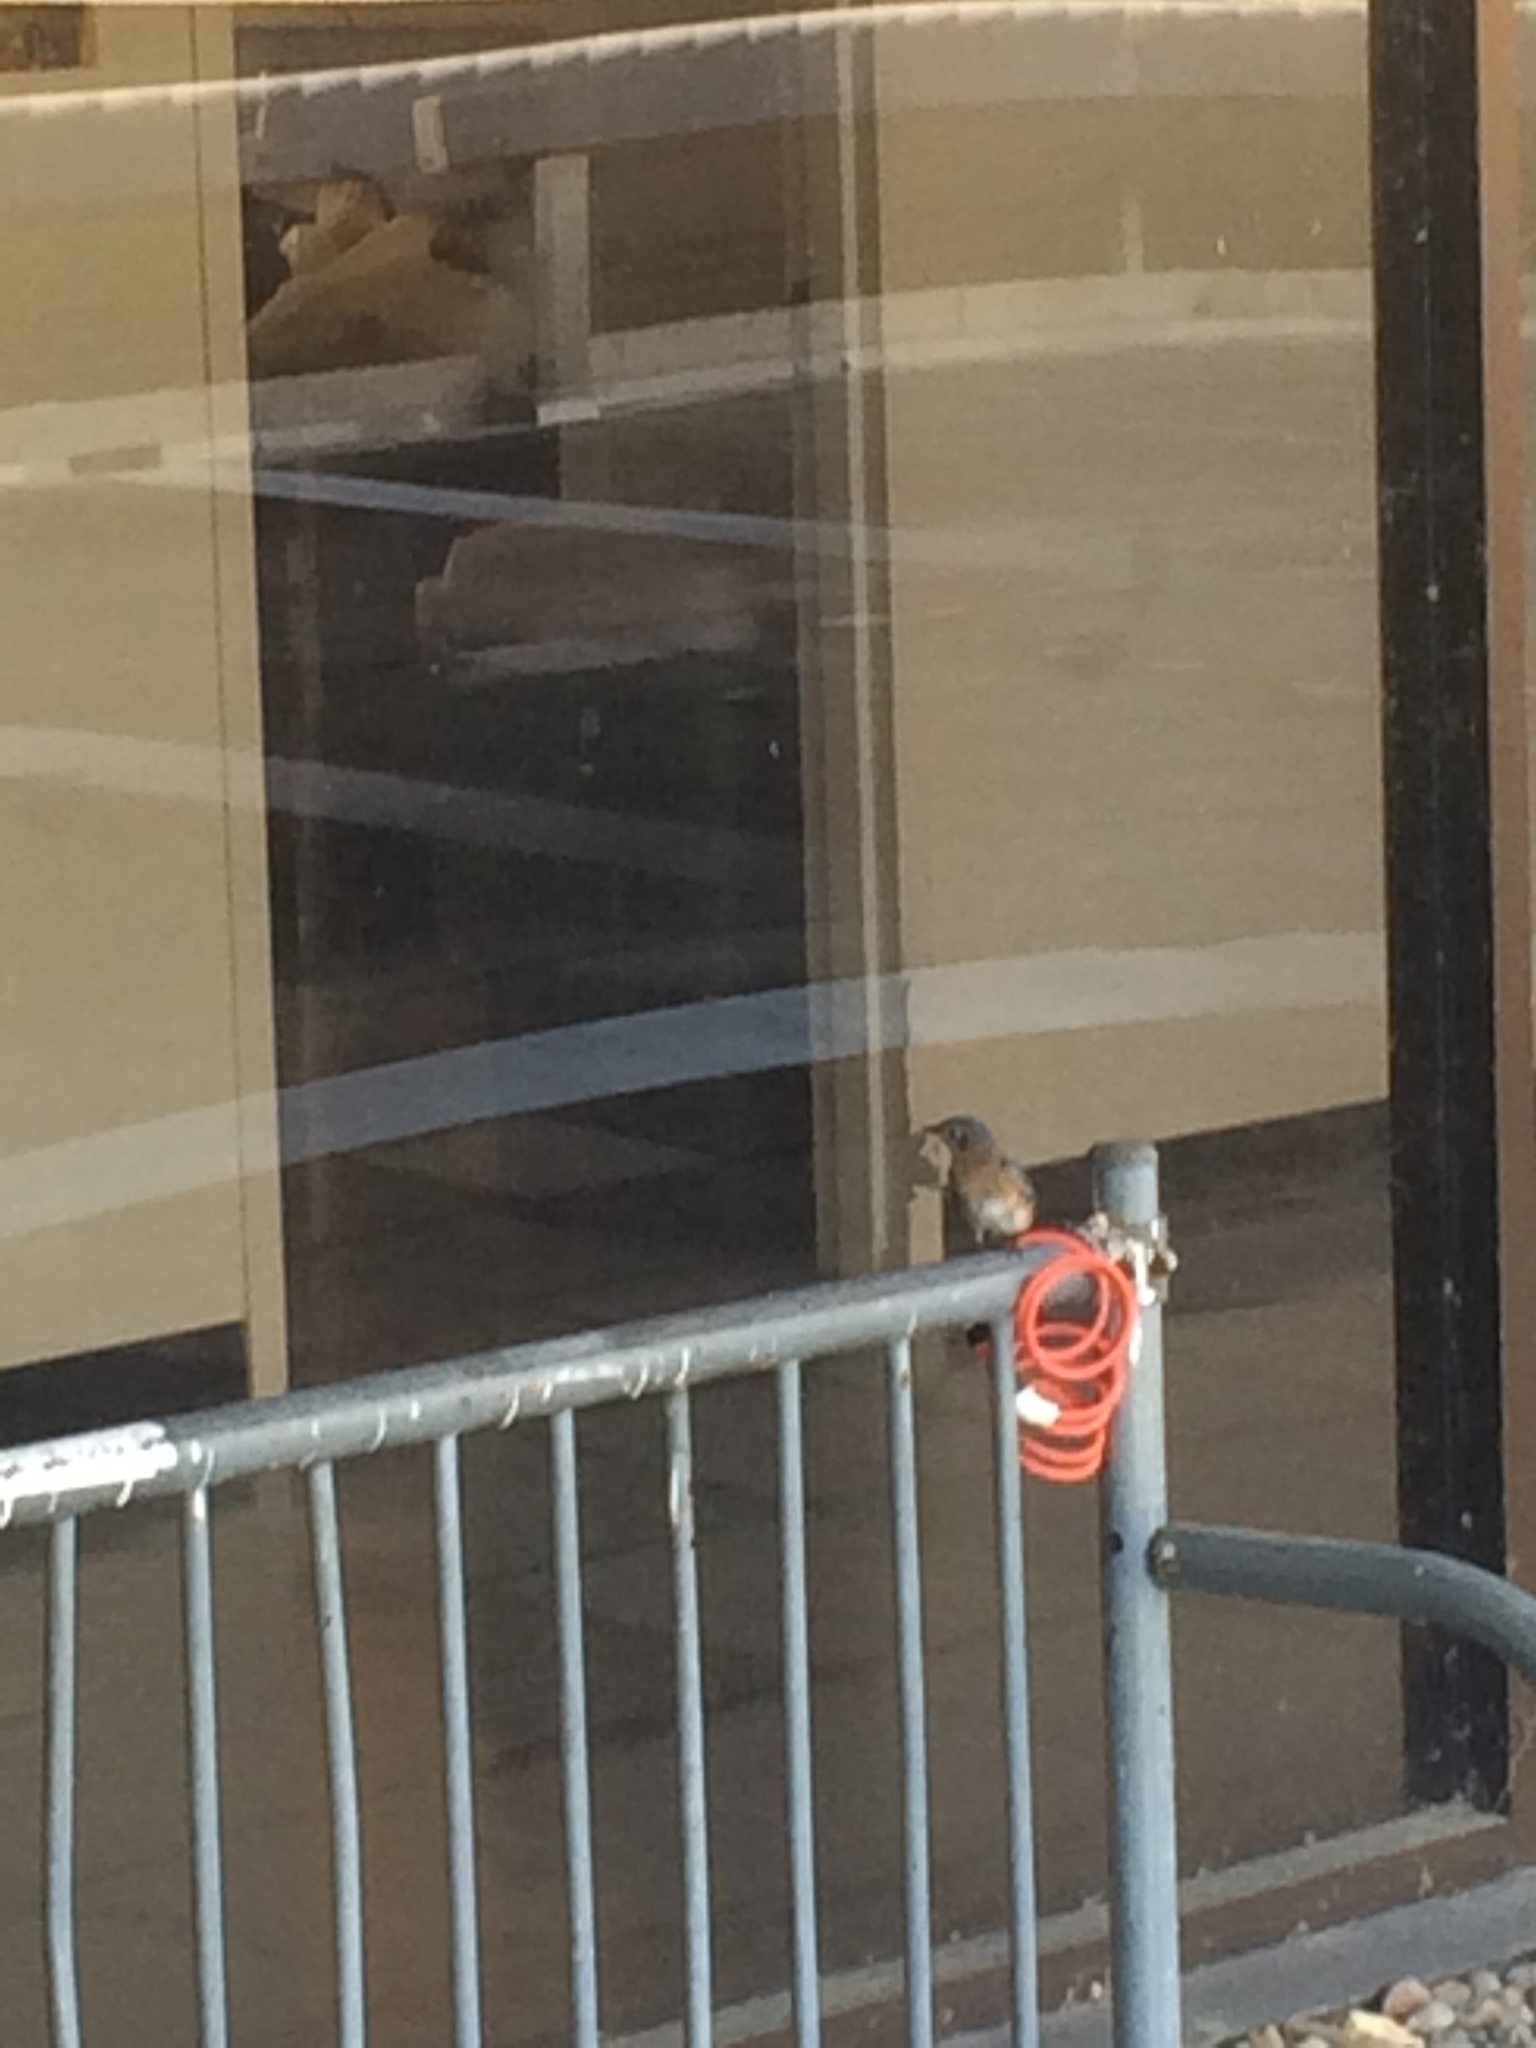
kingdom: Animalia
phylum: Chordata
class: Aves
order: Passeriformes
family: Turdidae
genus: Sialia
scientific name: Sialia sialis
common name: Eastern bluebird
